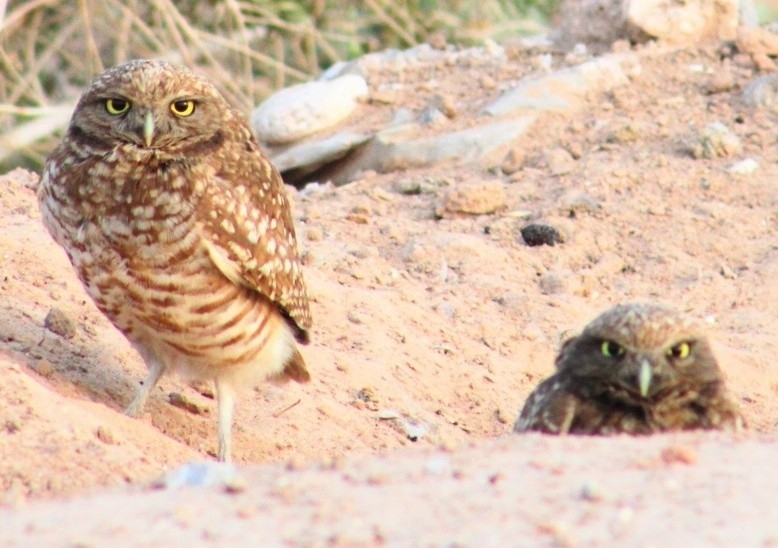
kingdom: Animalia
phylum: Chordata
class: Aves
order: Strigiformes
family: Strigidae
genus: Athene
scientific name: Athene cunicularia
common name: Burrowing owl
